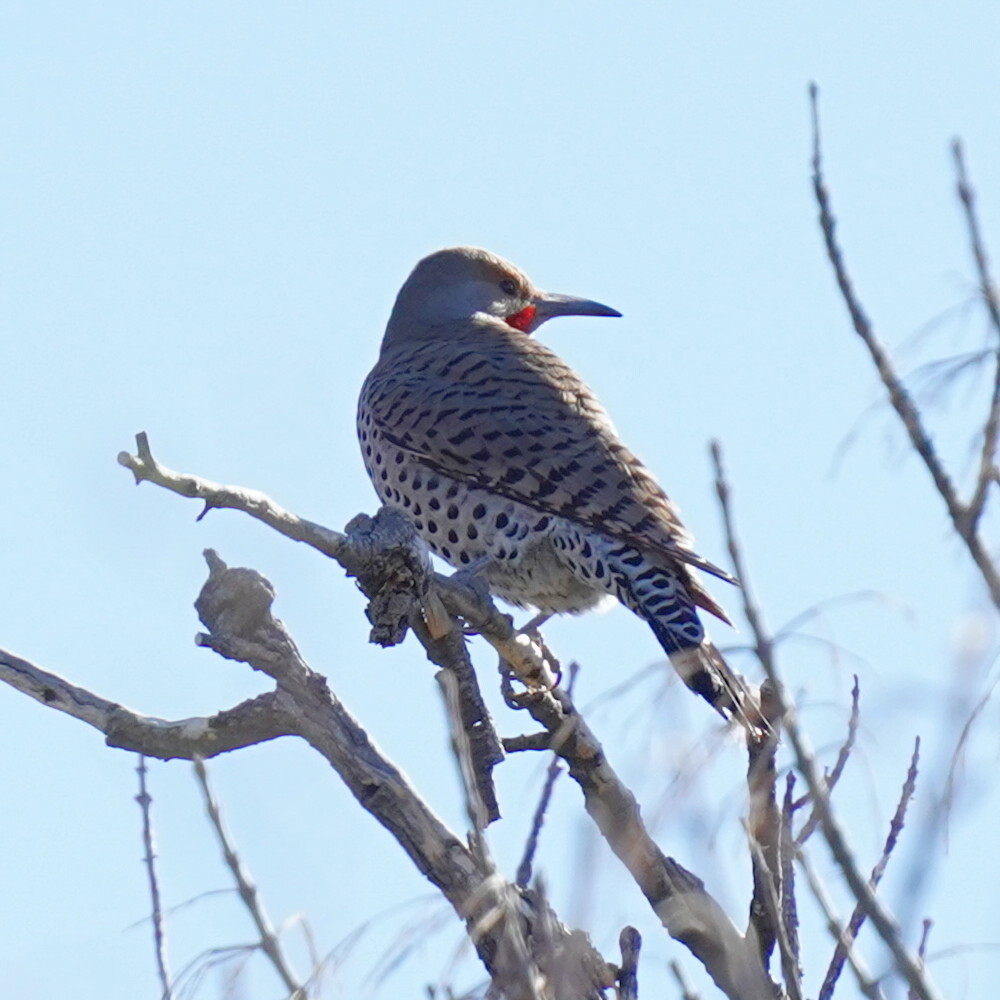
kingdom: Animalia
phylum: Chordata
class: Aves
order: Piciformes
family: Picidae
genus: Colaptes
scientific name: Colaptes auratus
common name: Northern flicker
